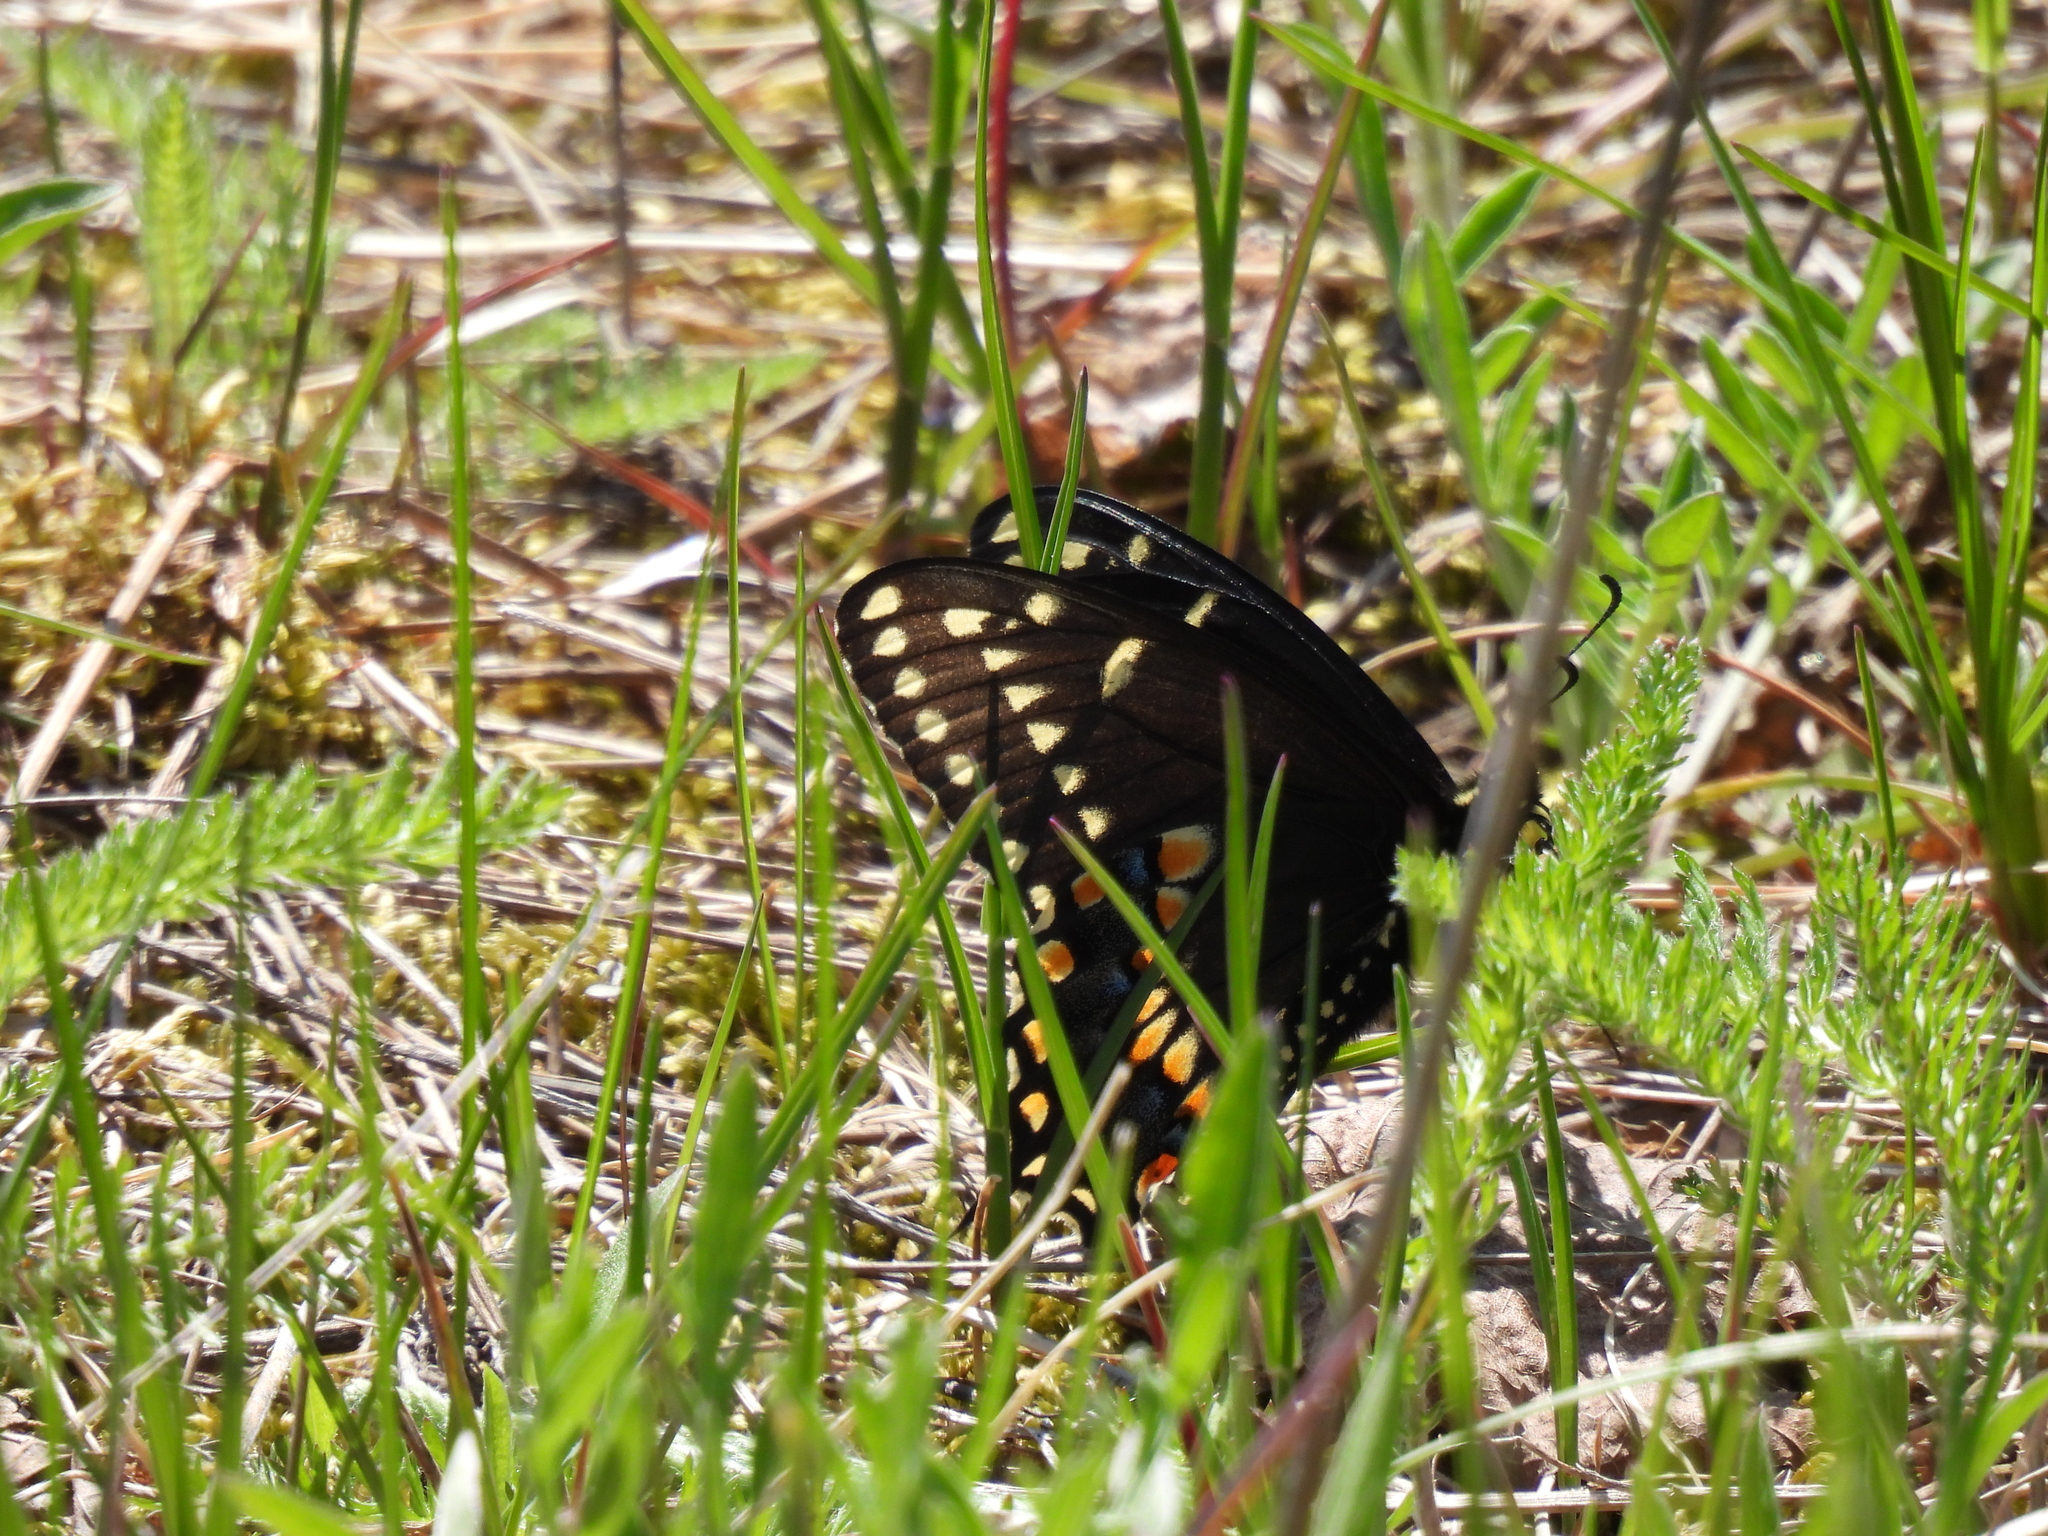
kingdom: Animalia
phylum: Arthropoda
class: Insecta
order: Lepidoptera
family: Papilionidae
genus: Papilio
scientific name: Papilio polyxenes
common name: Black swallowtail
